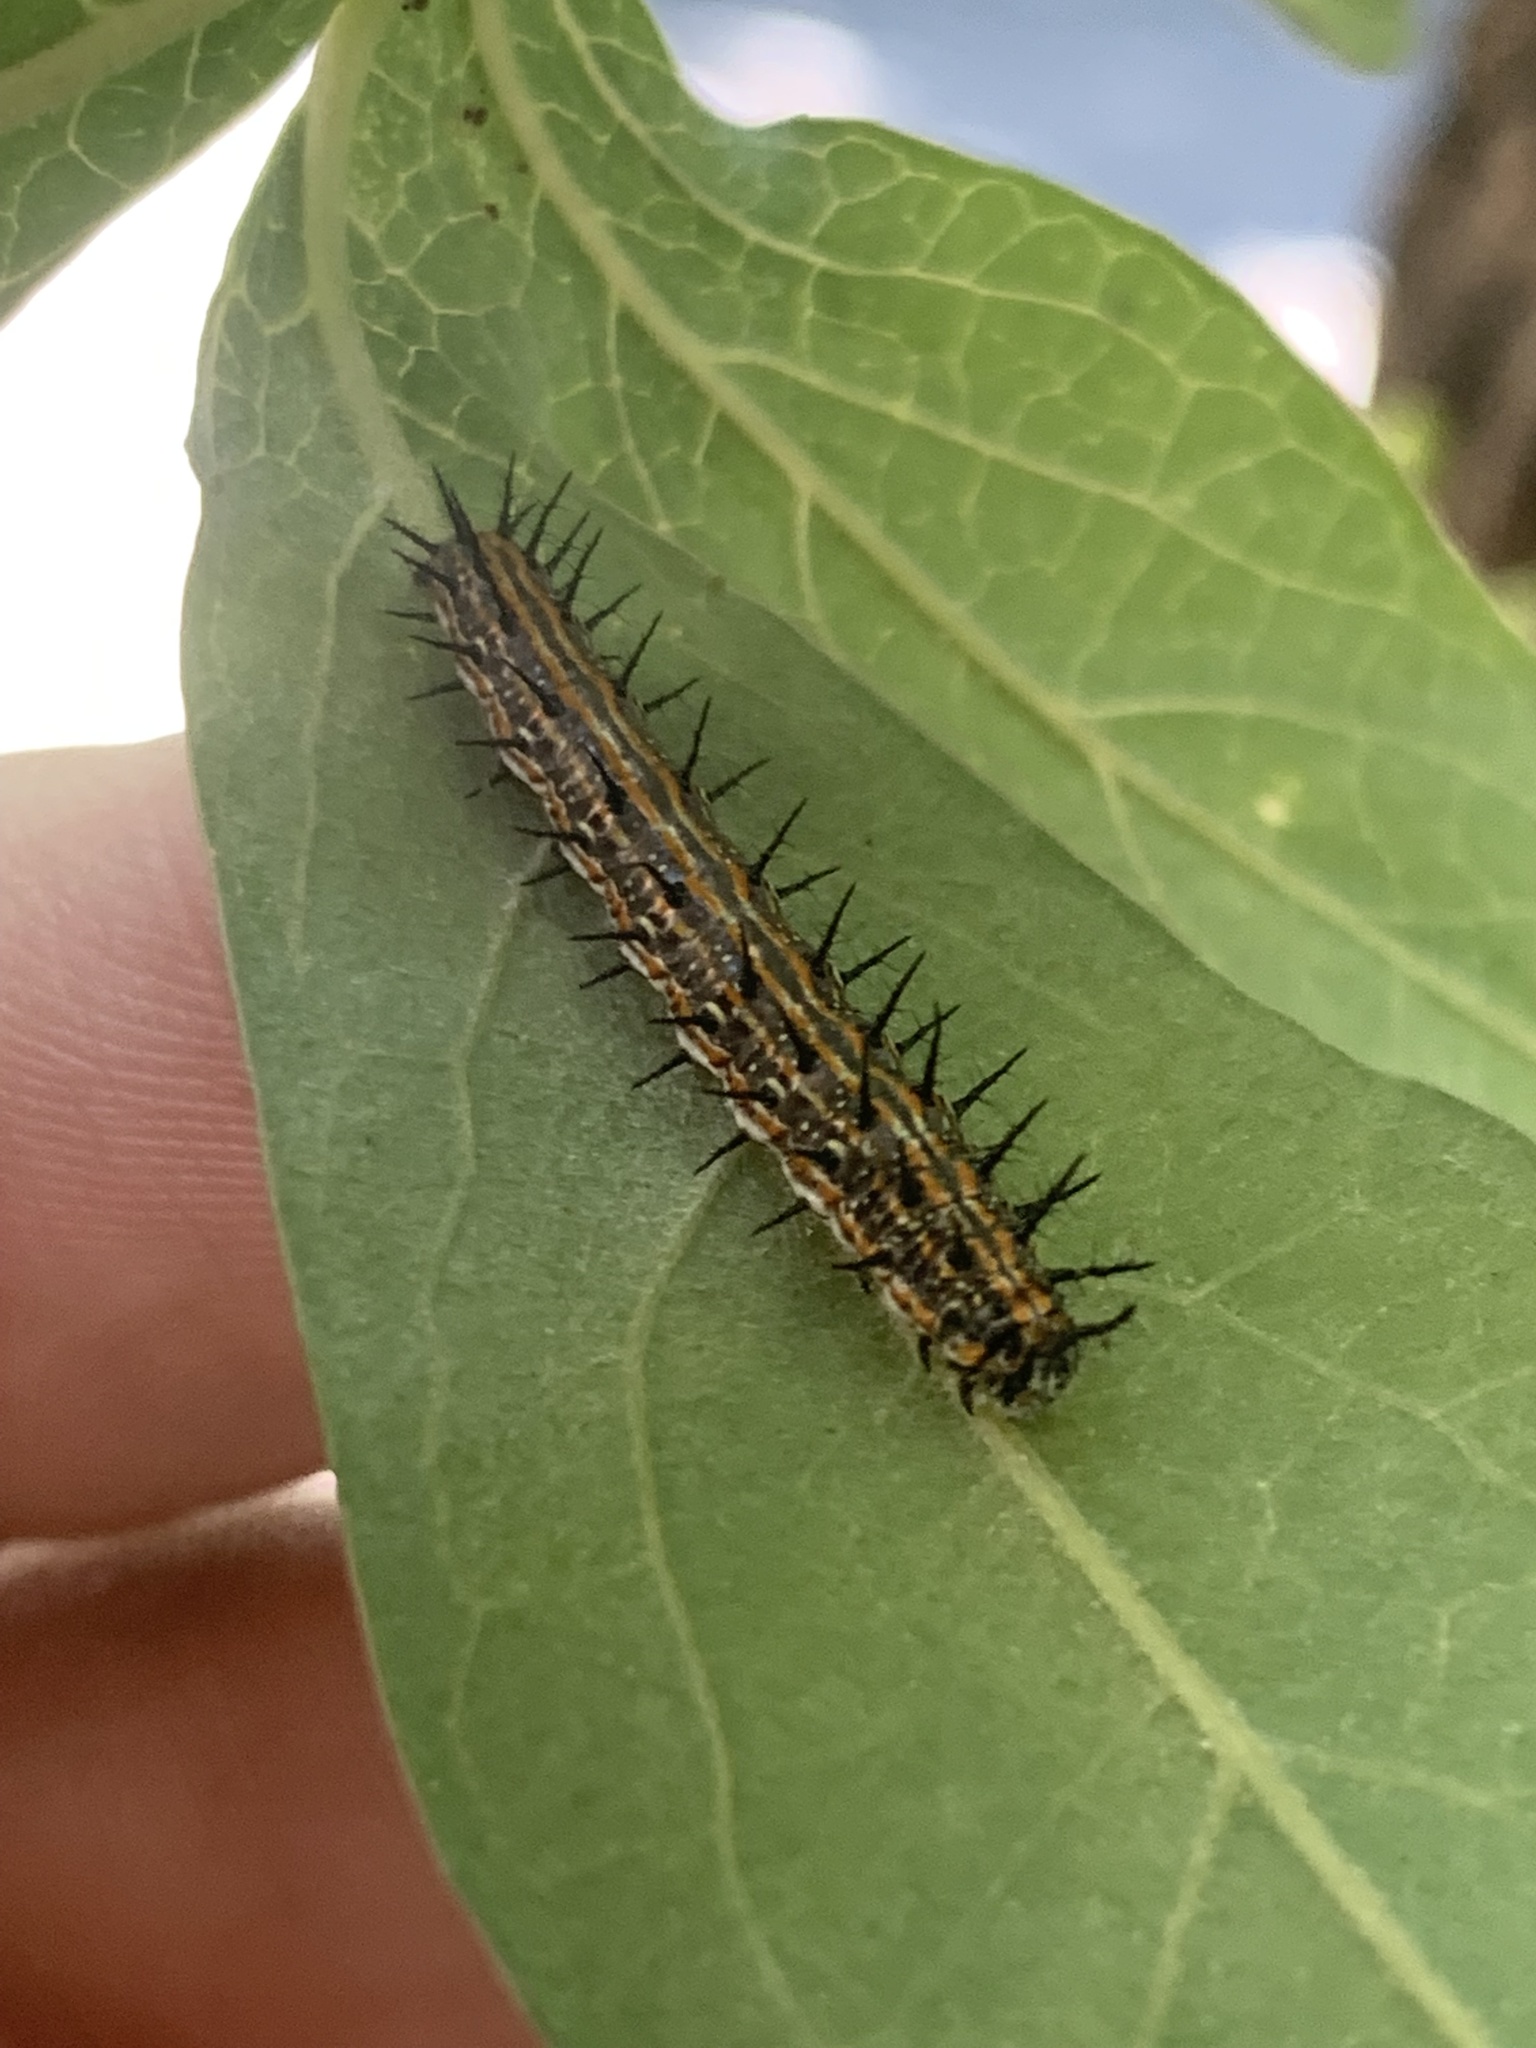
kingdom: Animalia
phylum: Arthropoda
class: Insecta
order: Lepidoptera
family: Nymphalidae
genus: Dione
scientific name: Dione vanillae
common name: Gulf fritillary
